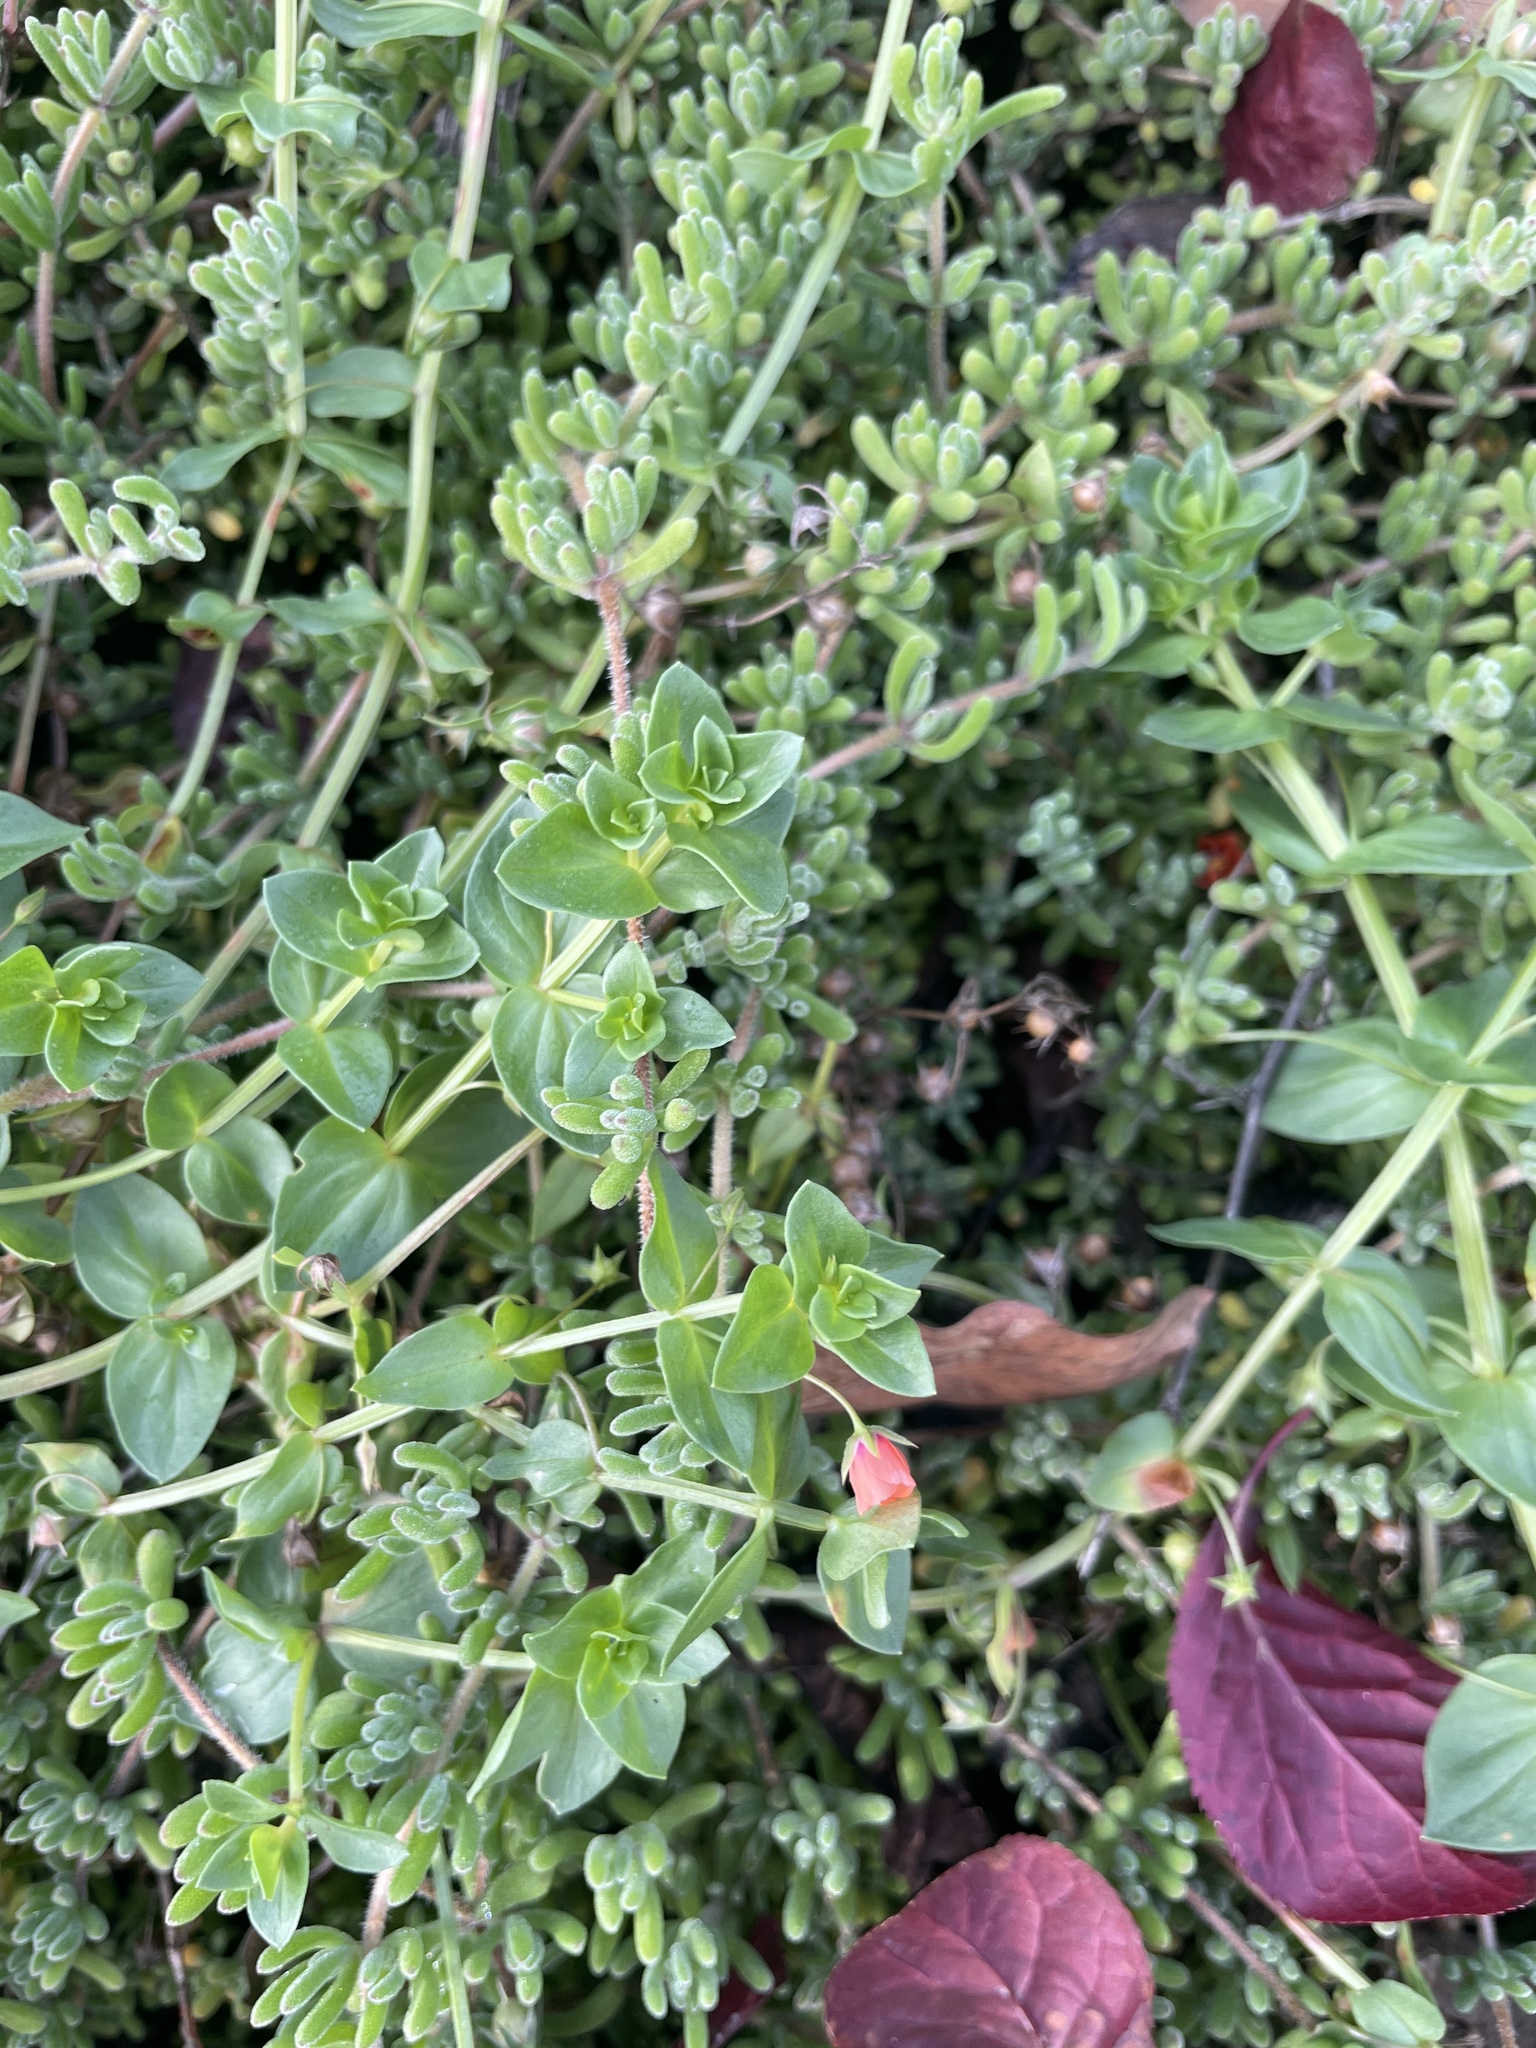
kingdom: Plantae
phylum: Tracheophyta
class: Magnoliopsida
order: Ericales
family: Primulaceae
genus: Lysimachia
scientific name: Lysimachia arvensis
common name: Scarlet pimpernel
